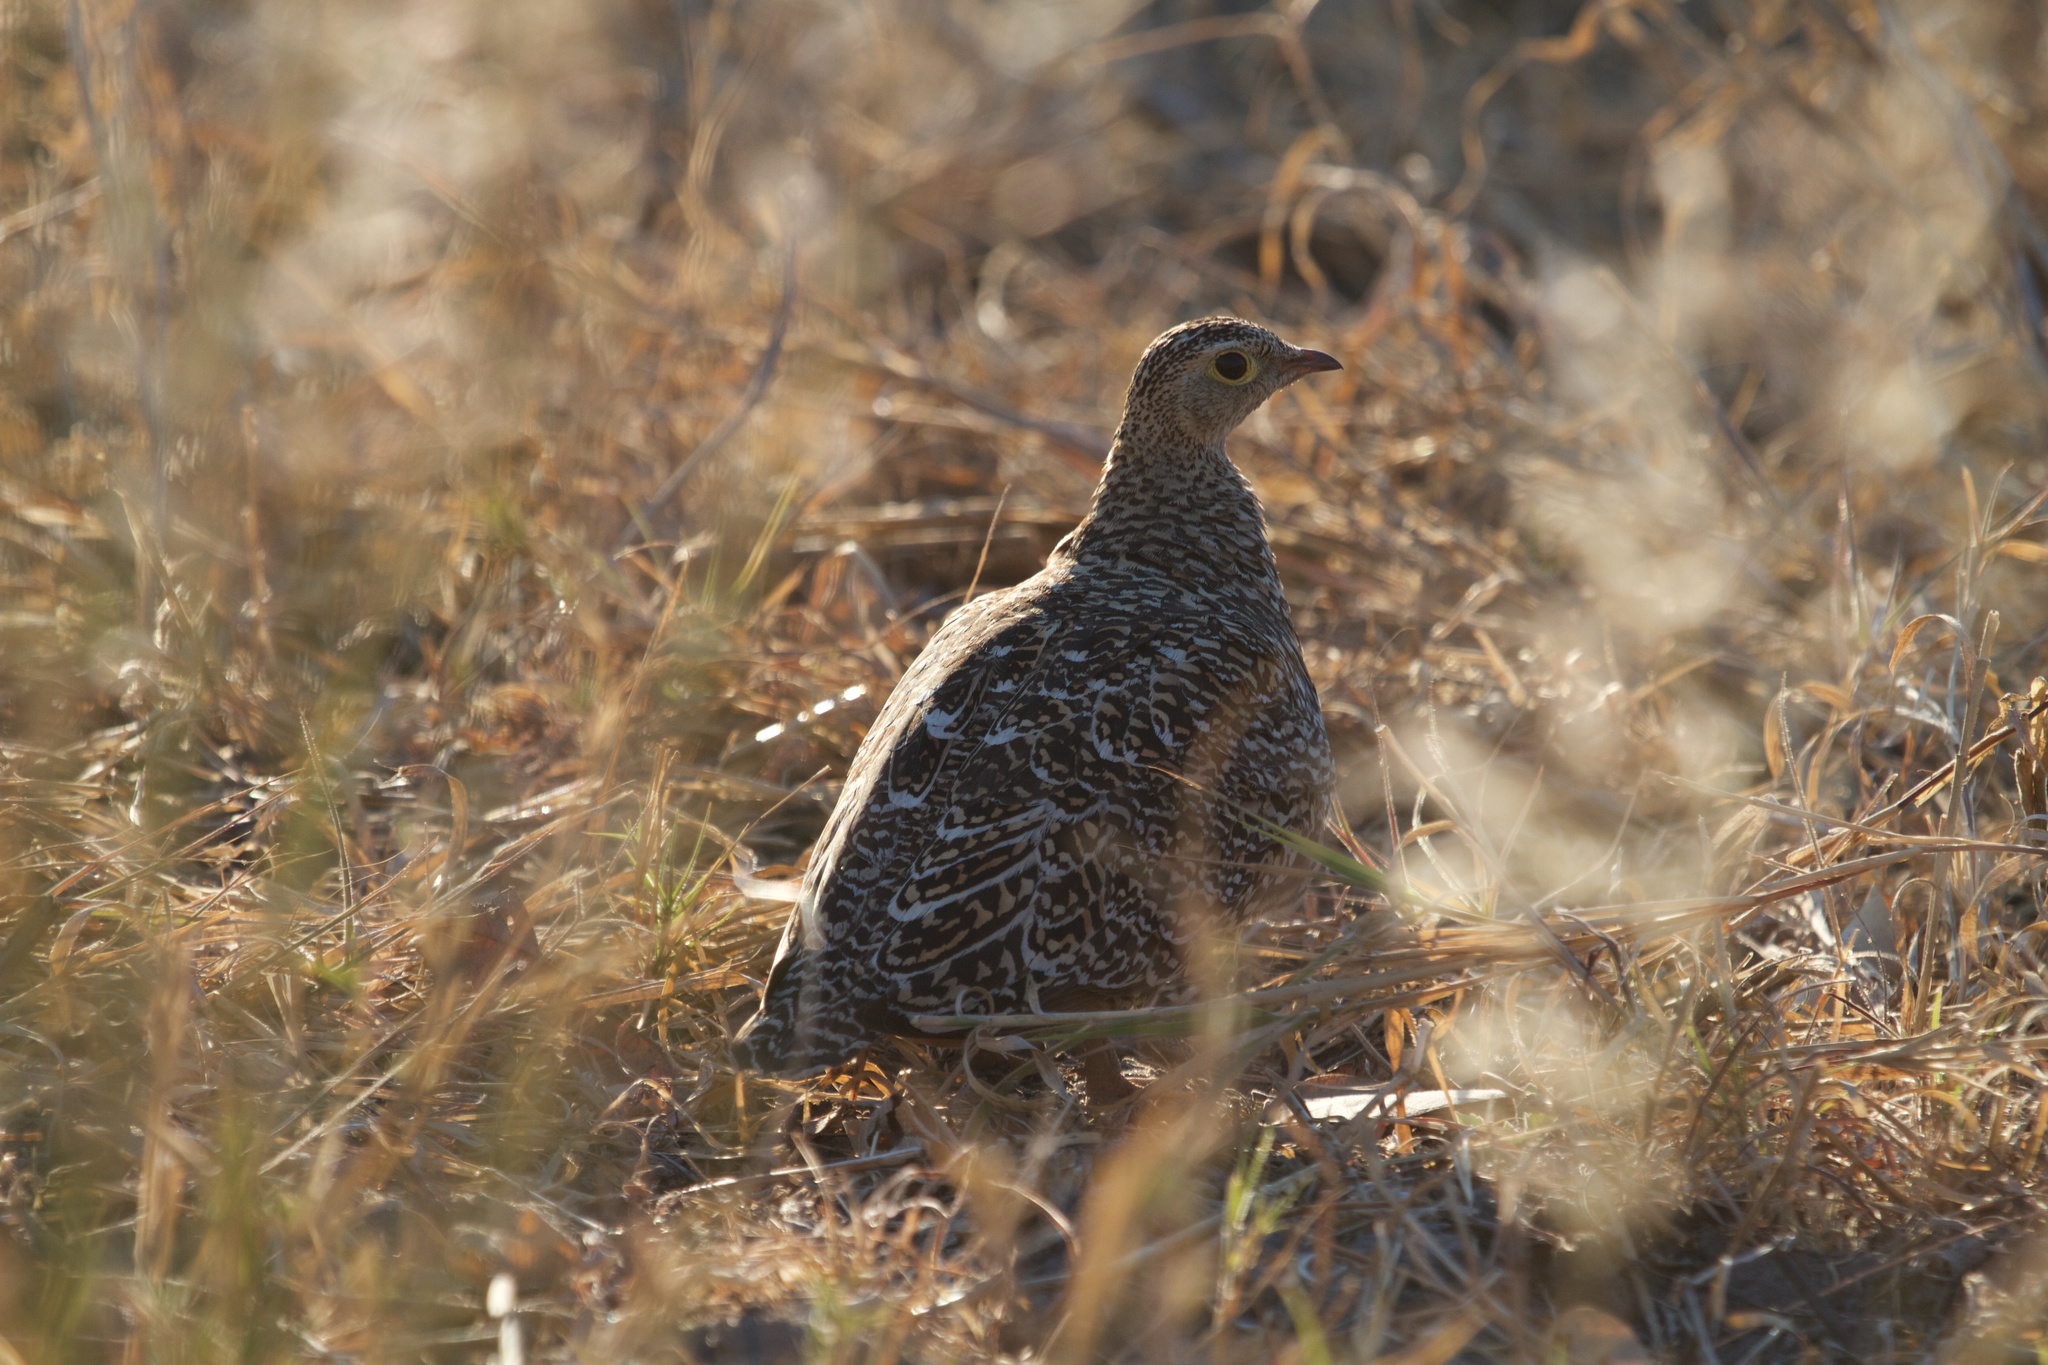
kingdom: Animalia
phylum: Chordata
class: Aves
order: Pteroclidiformes
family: Pteroclididae
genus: Pterocles
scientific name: Pterocles bicinctus
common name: Double-banded sandgrouse
